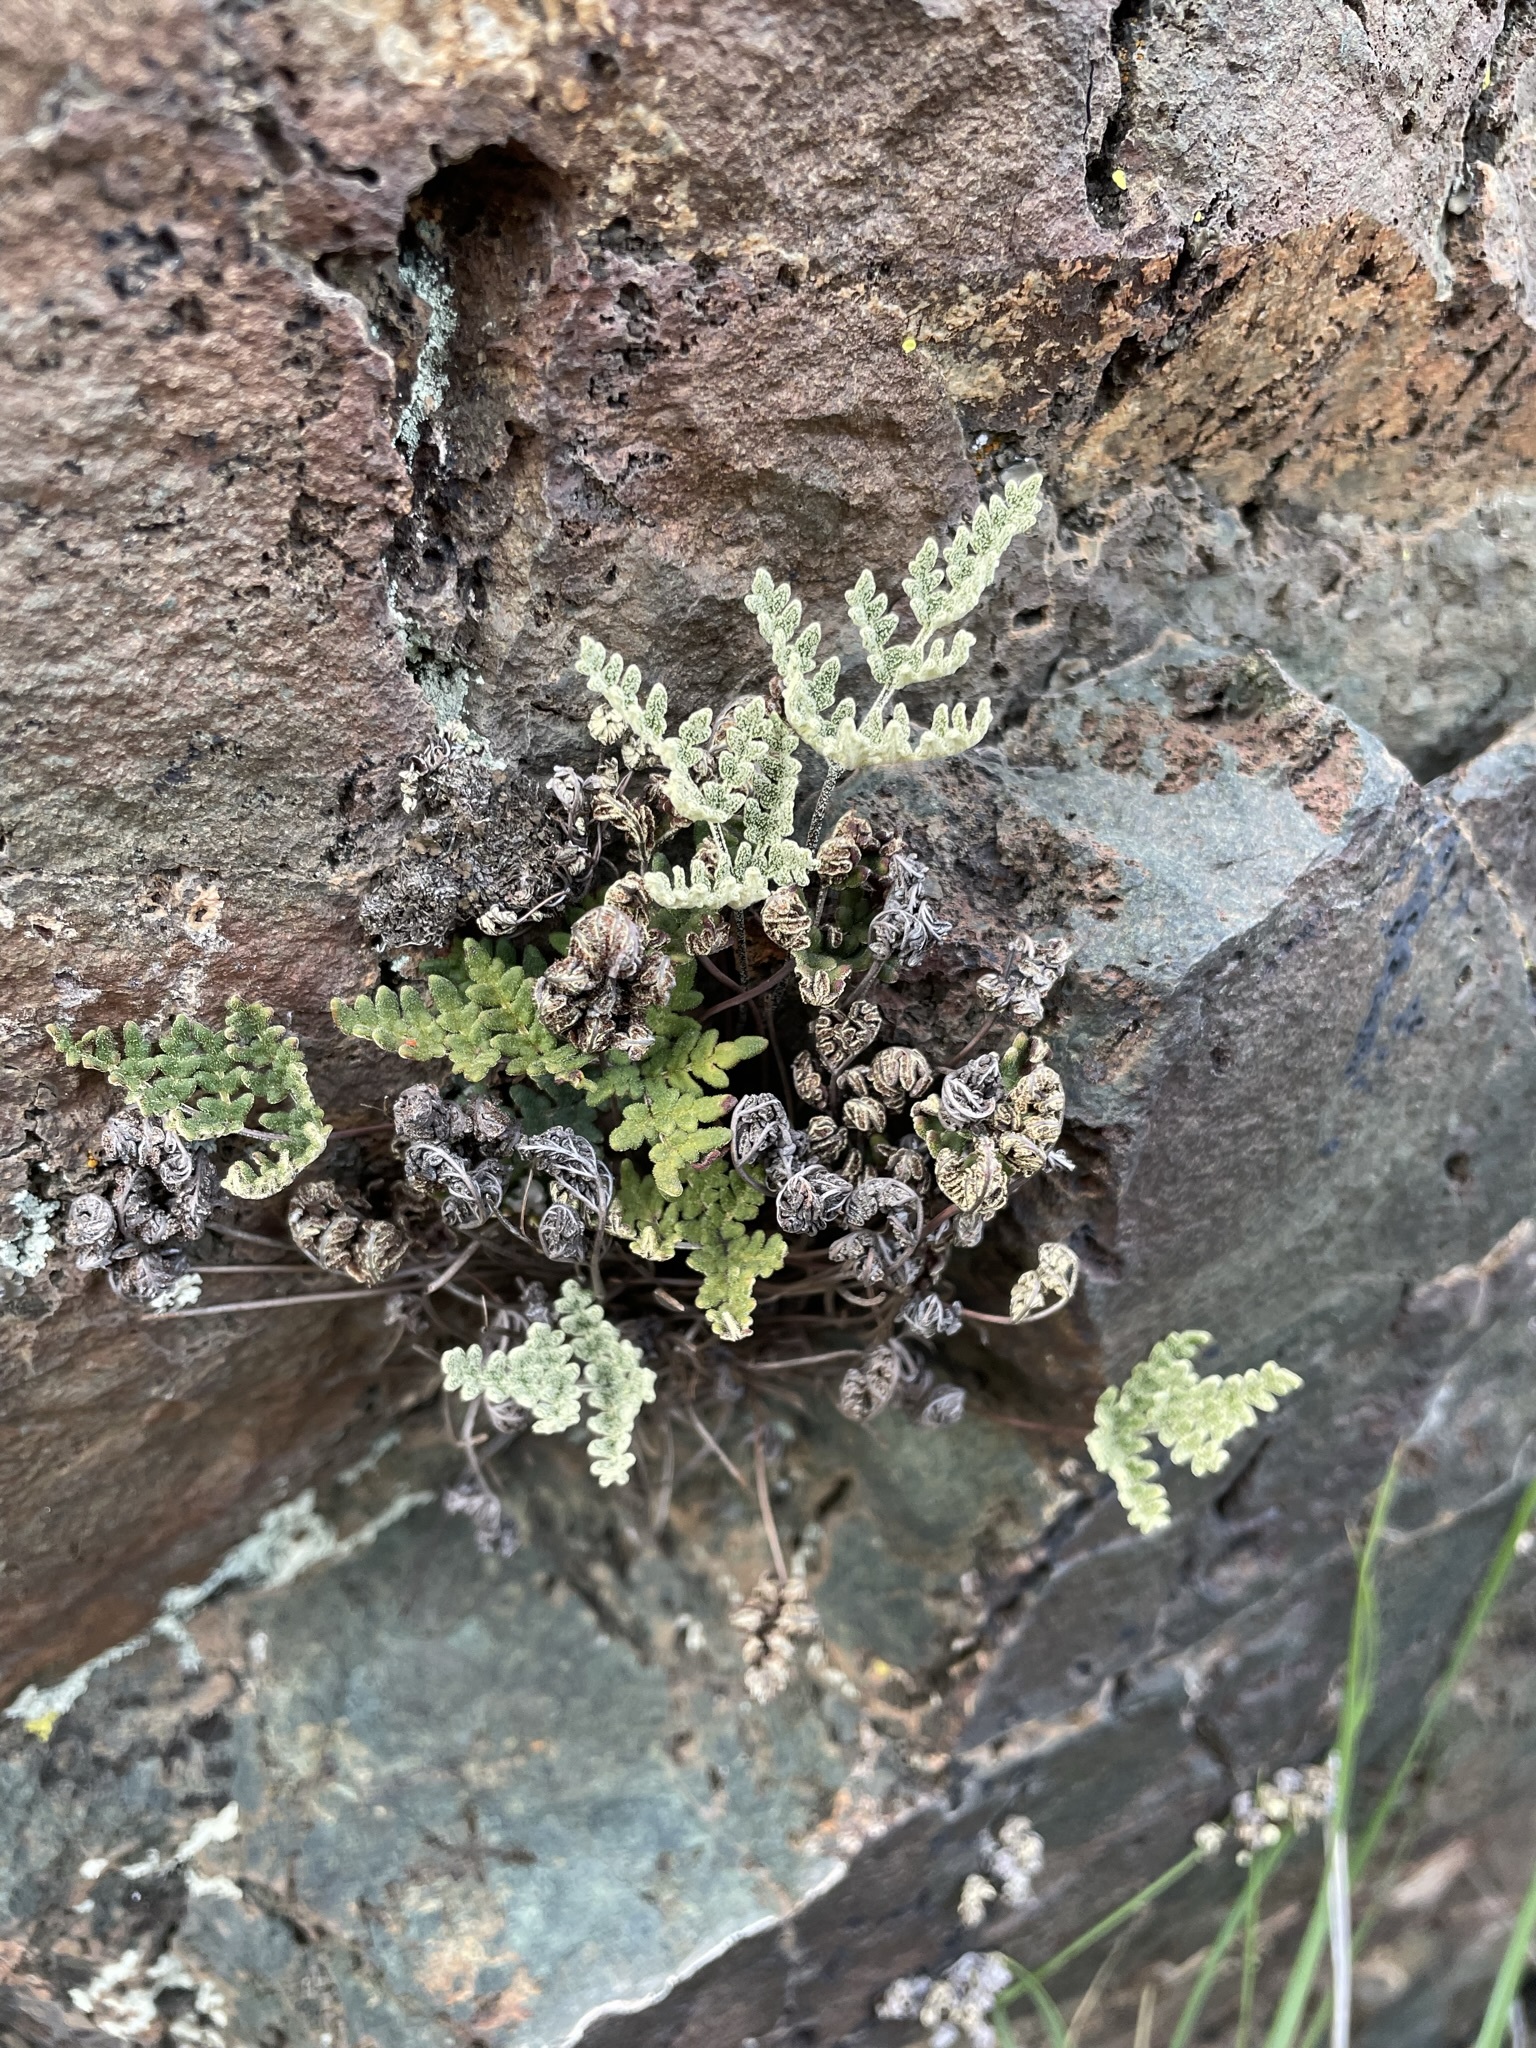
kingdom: Plantae
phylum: Tracheophyta
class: Polypodiopsida
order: Polypodiales
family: Pteridaceae
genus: Notholaena
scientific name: Notholaena californica
